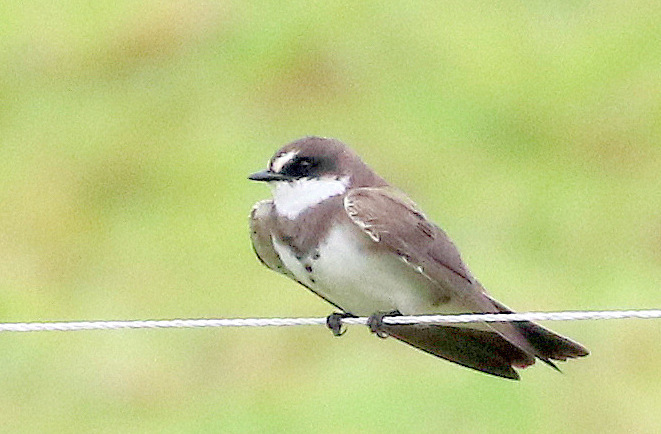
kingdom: Animalia
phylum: Chordata
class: Aves
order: Passeriformes
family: Hirundinidae
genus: Riparia
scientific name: Riparia cincta
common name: Banded martin
